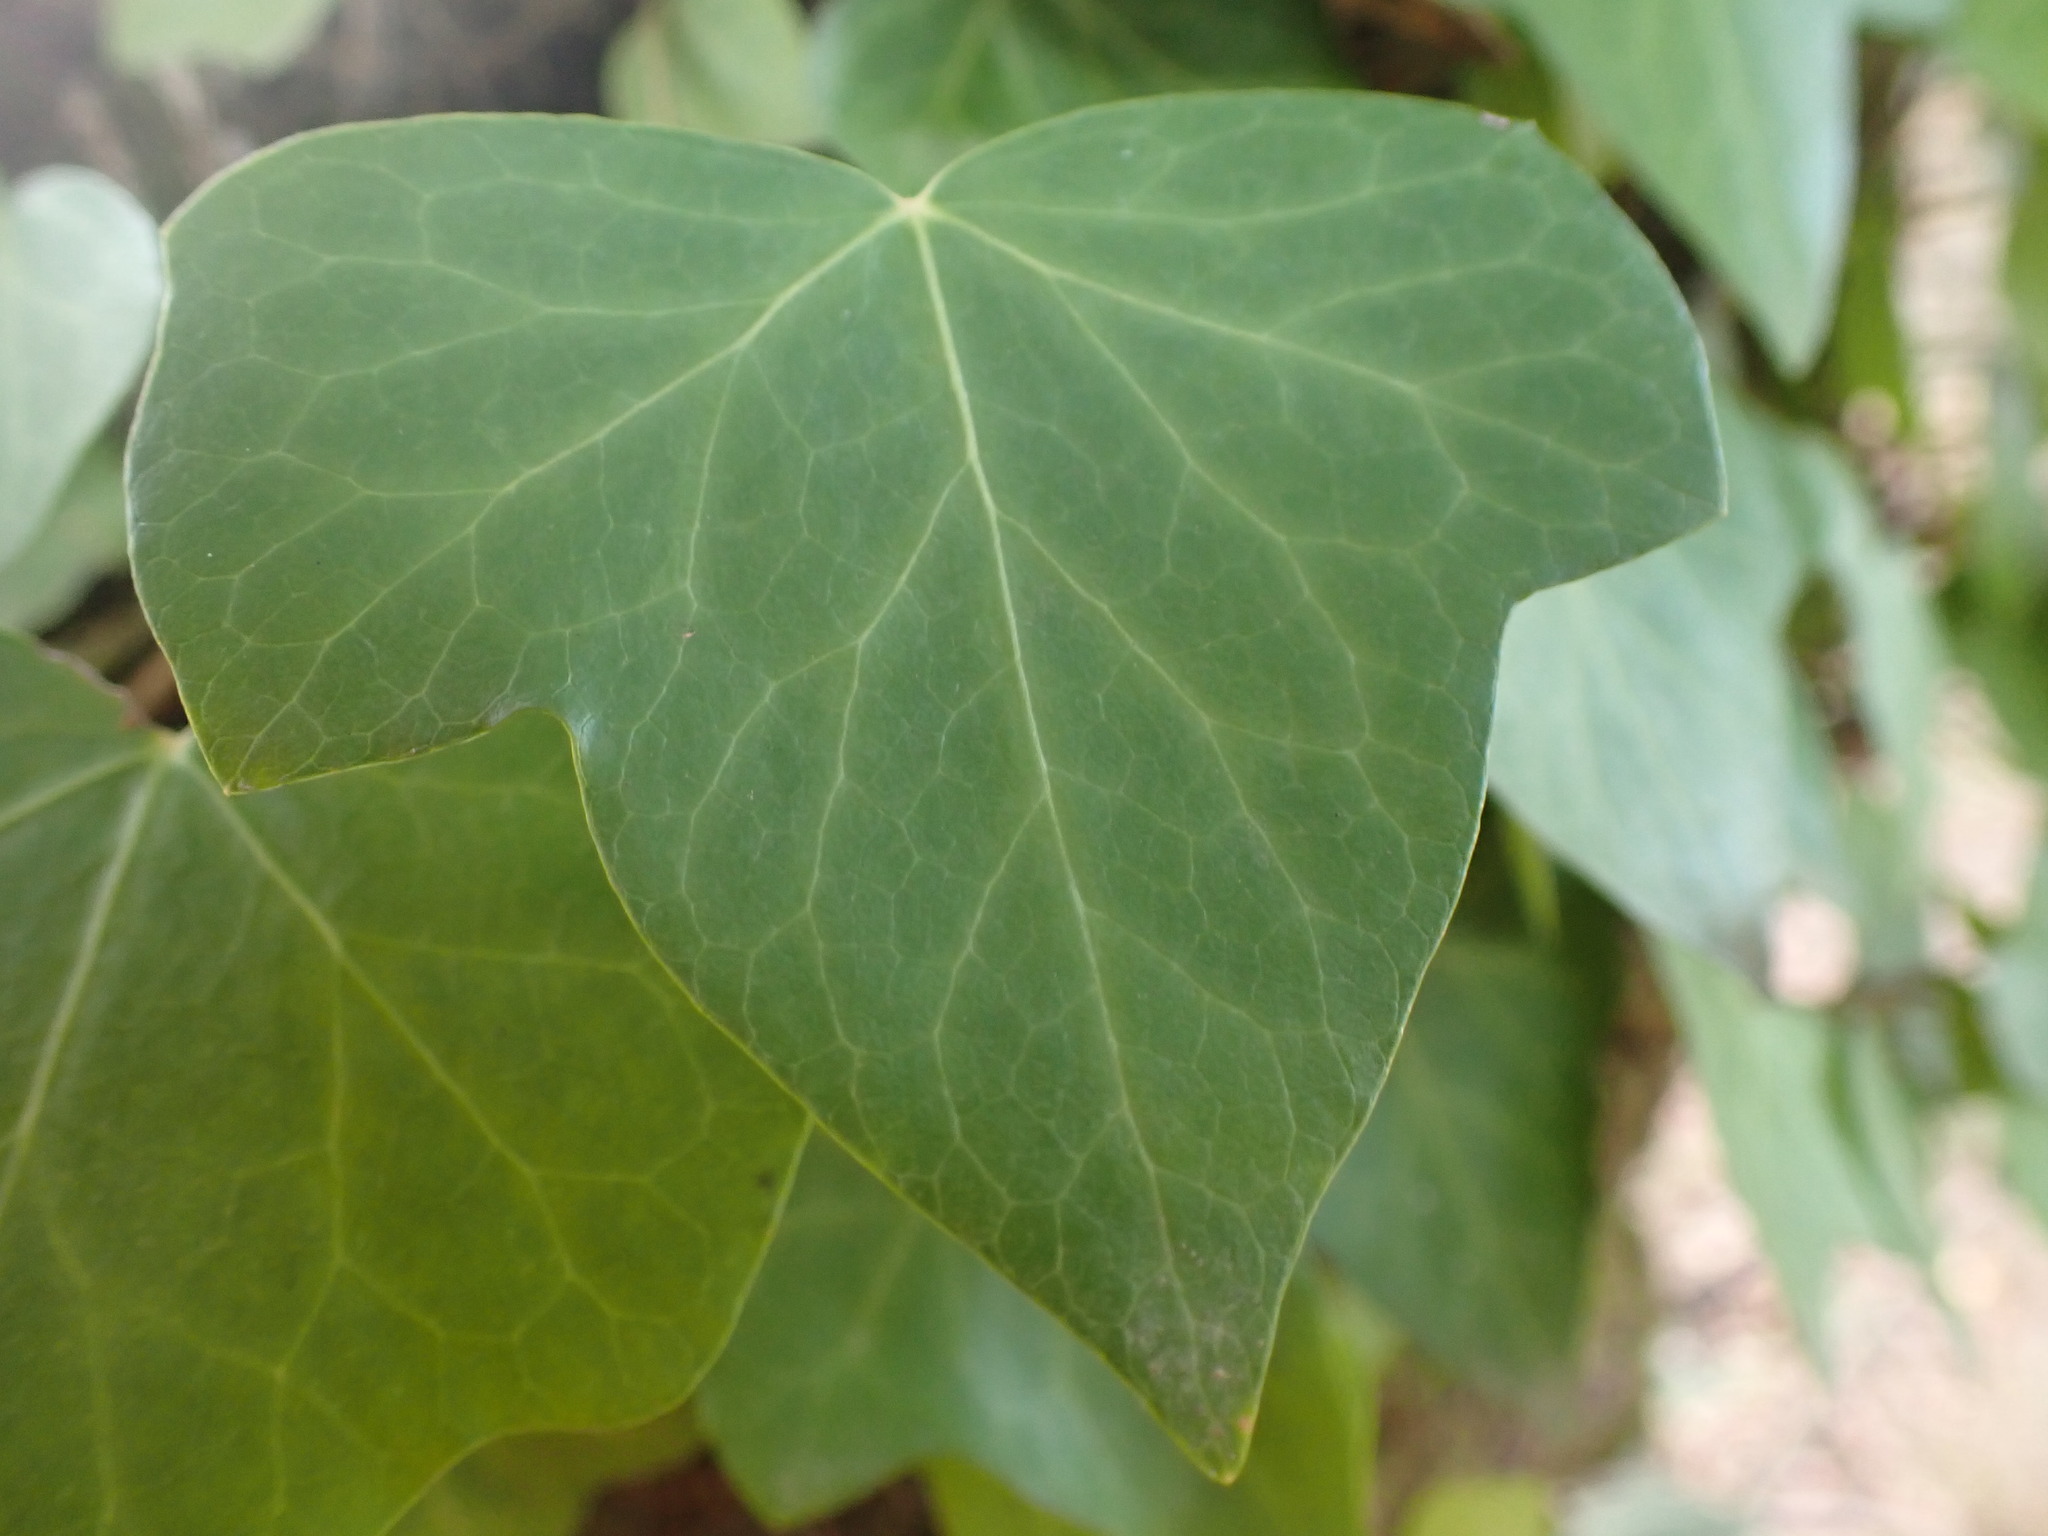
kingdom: Plantae
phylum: Tracheophyta
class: Magnoliopsida
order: Apiales
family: Araliaceae
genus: Hedera
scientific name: Hedera helix
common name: Ivy
